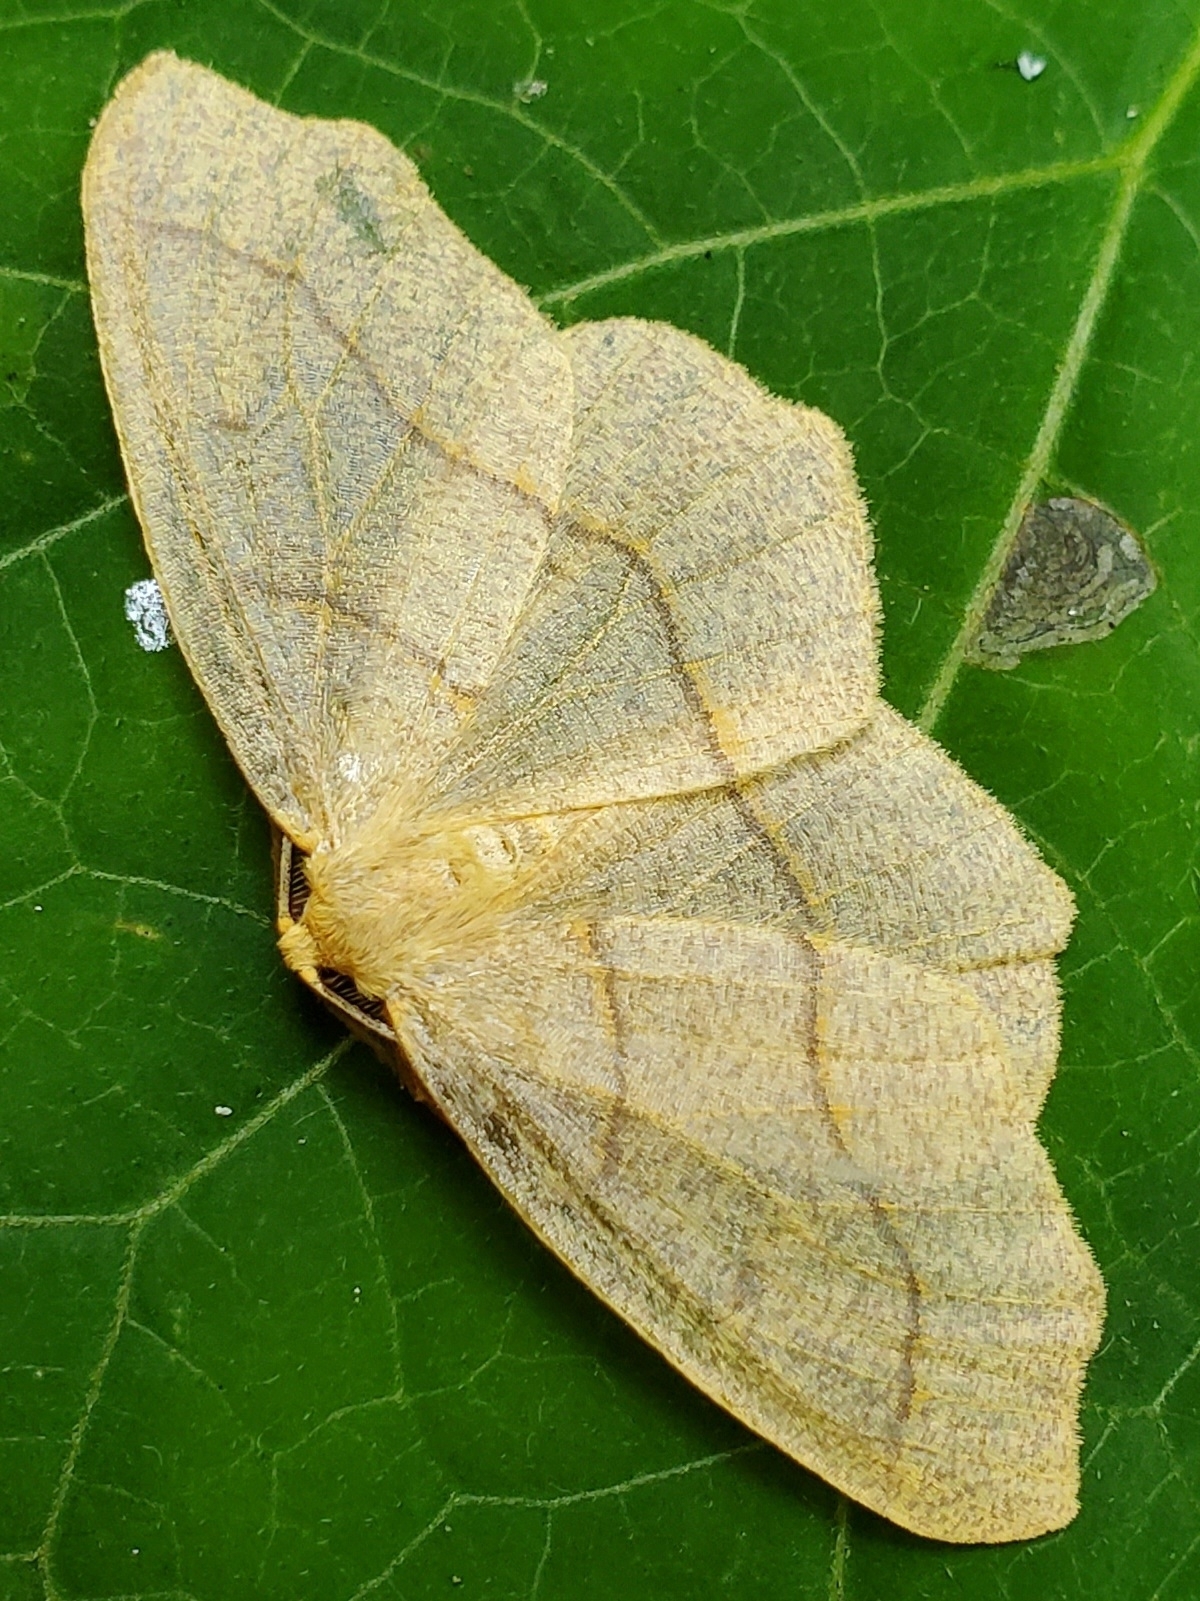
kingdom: Animalia
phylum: Arthropoda
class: Insecta
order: Lepidoptera
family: Geometridae
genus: Lambdina
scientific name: Lambdina fiscellaria
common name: Hemlock looper
